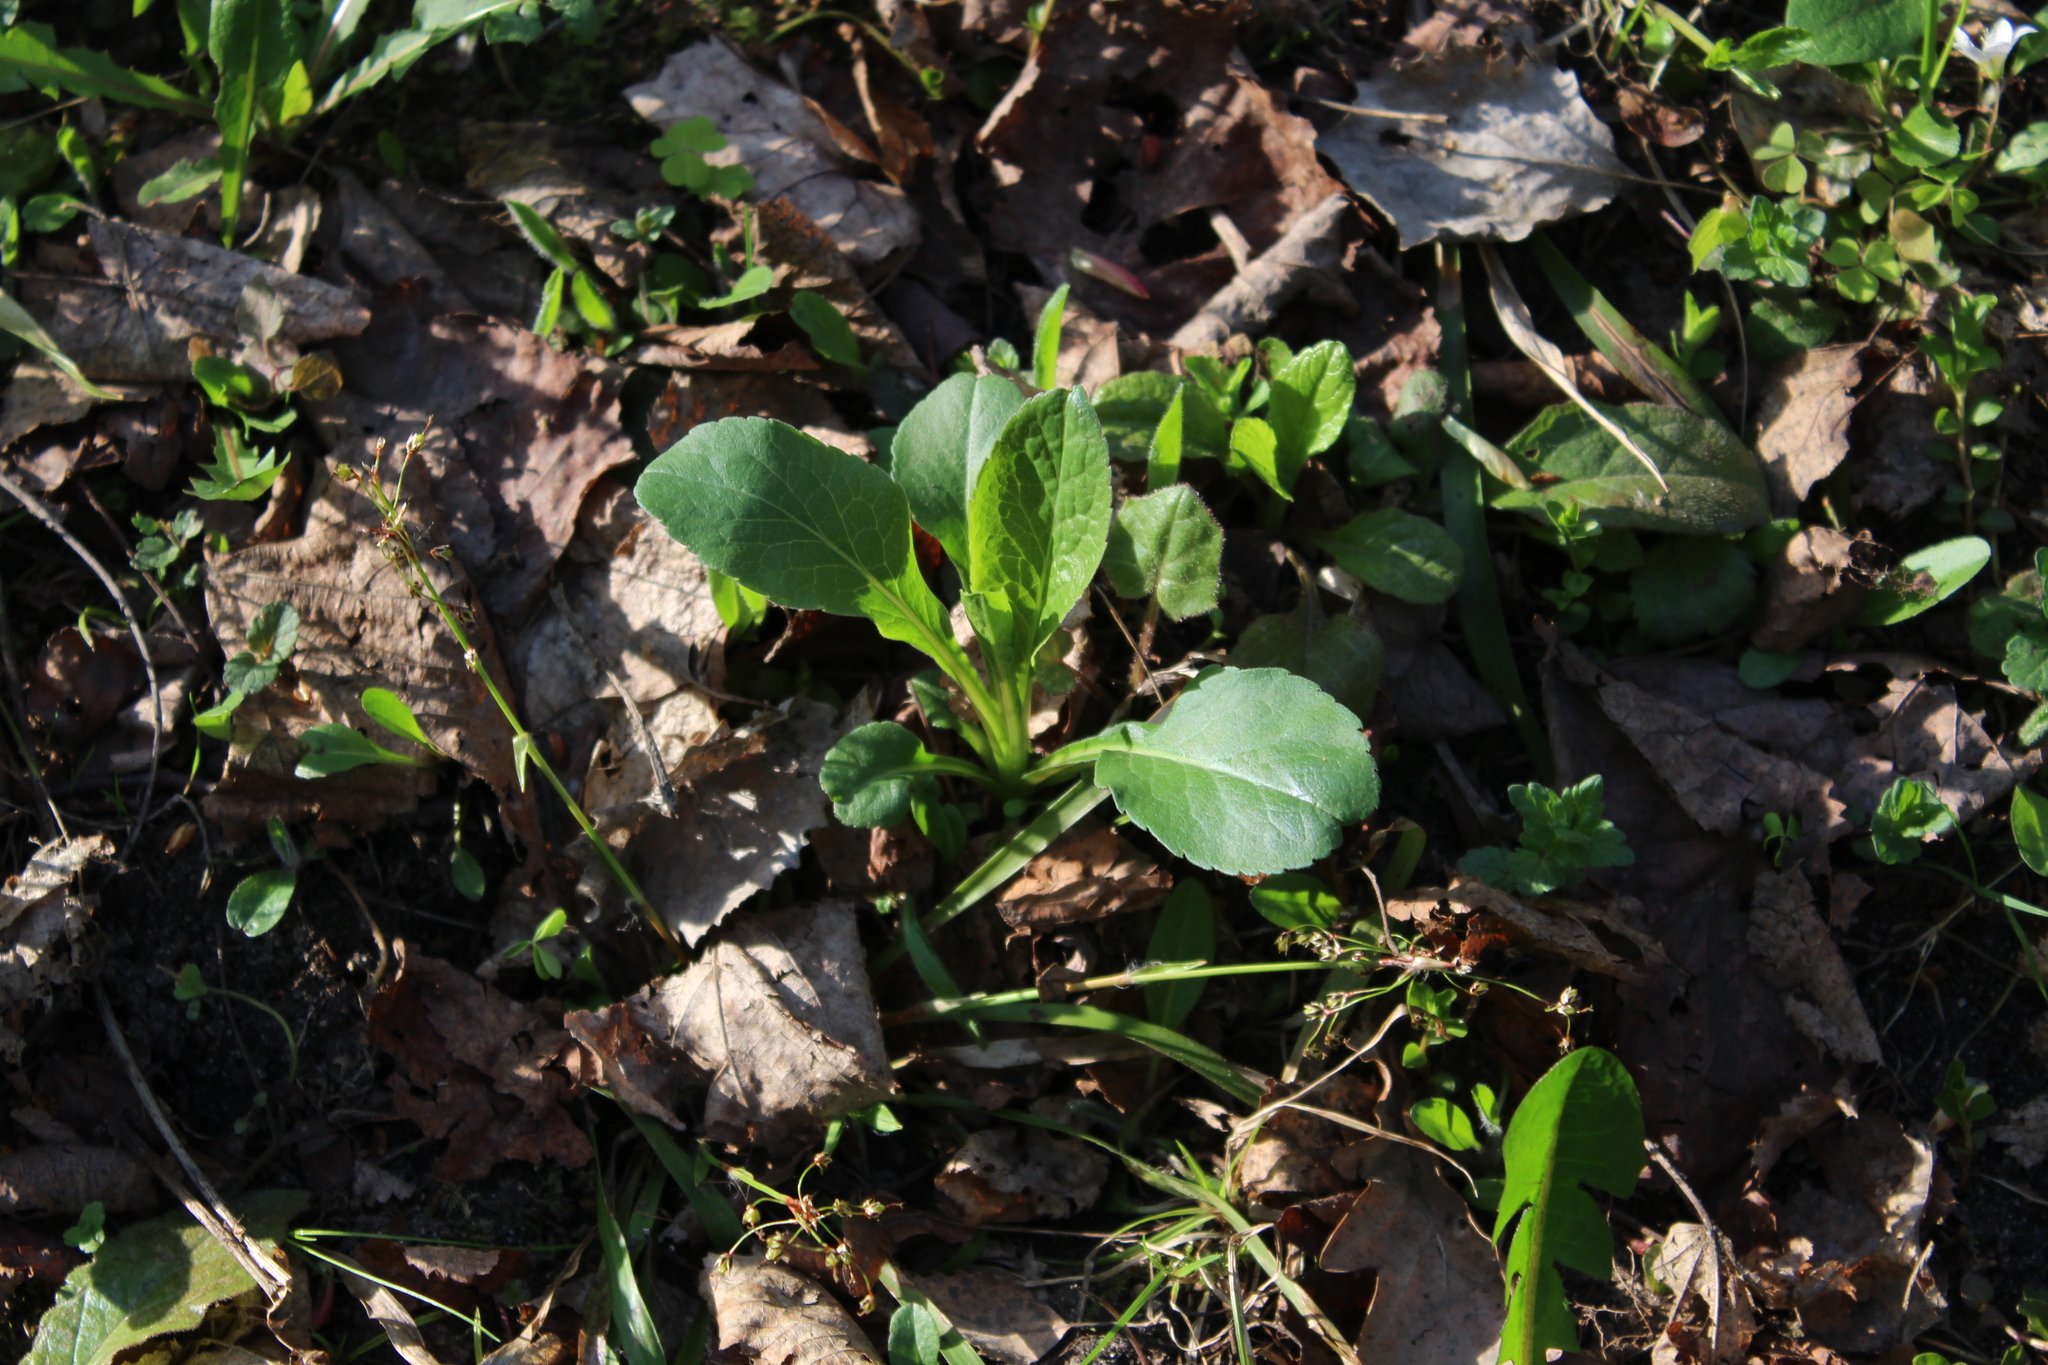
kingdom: Plantae
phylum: Tracheophyta
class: Magnoliopsida
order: Asterales
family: Asteraceae
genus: Solidago
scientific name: Solidago virgaurea
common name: Goldenrod
